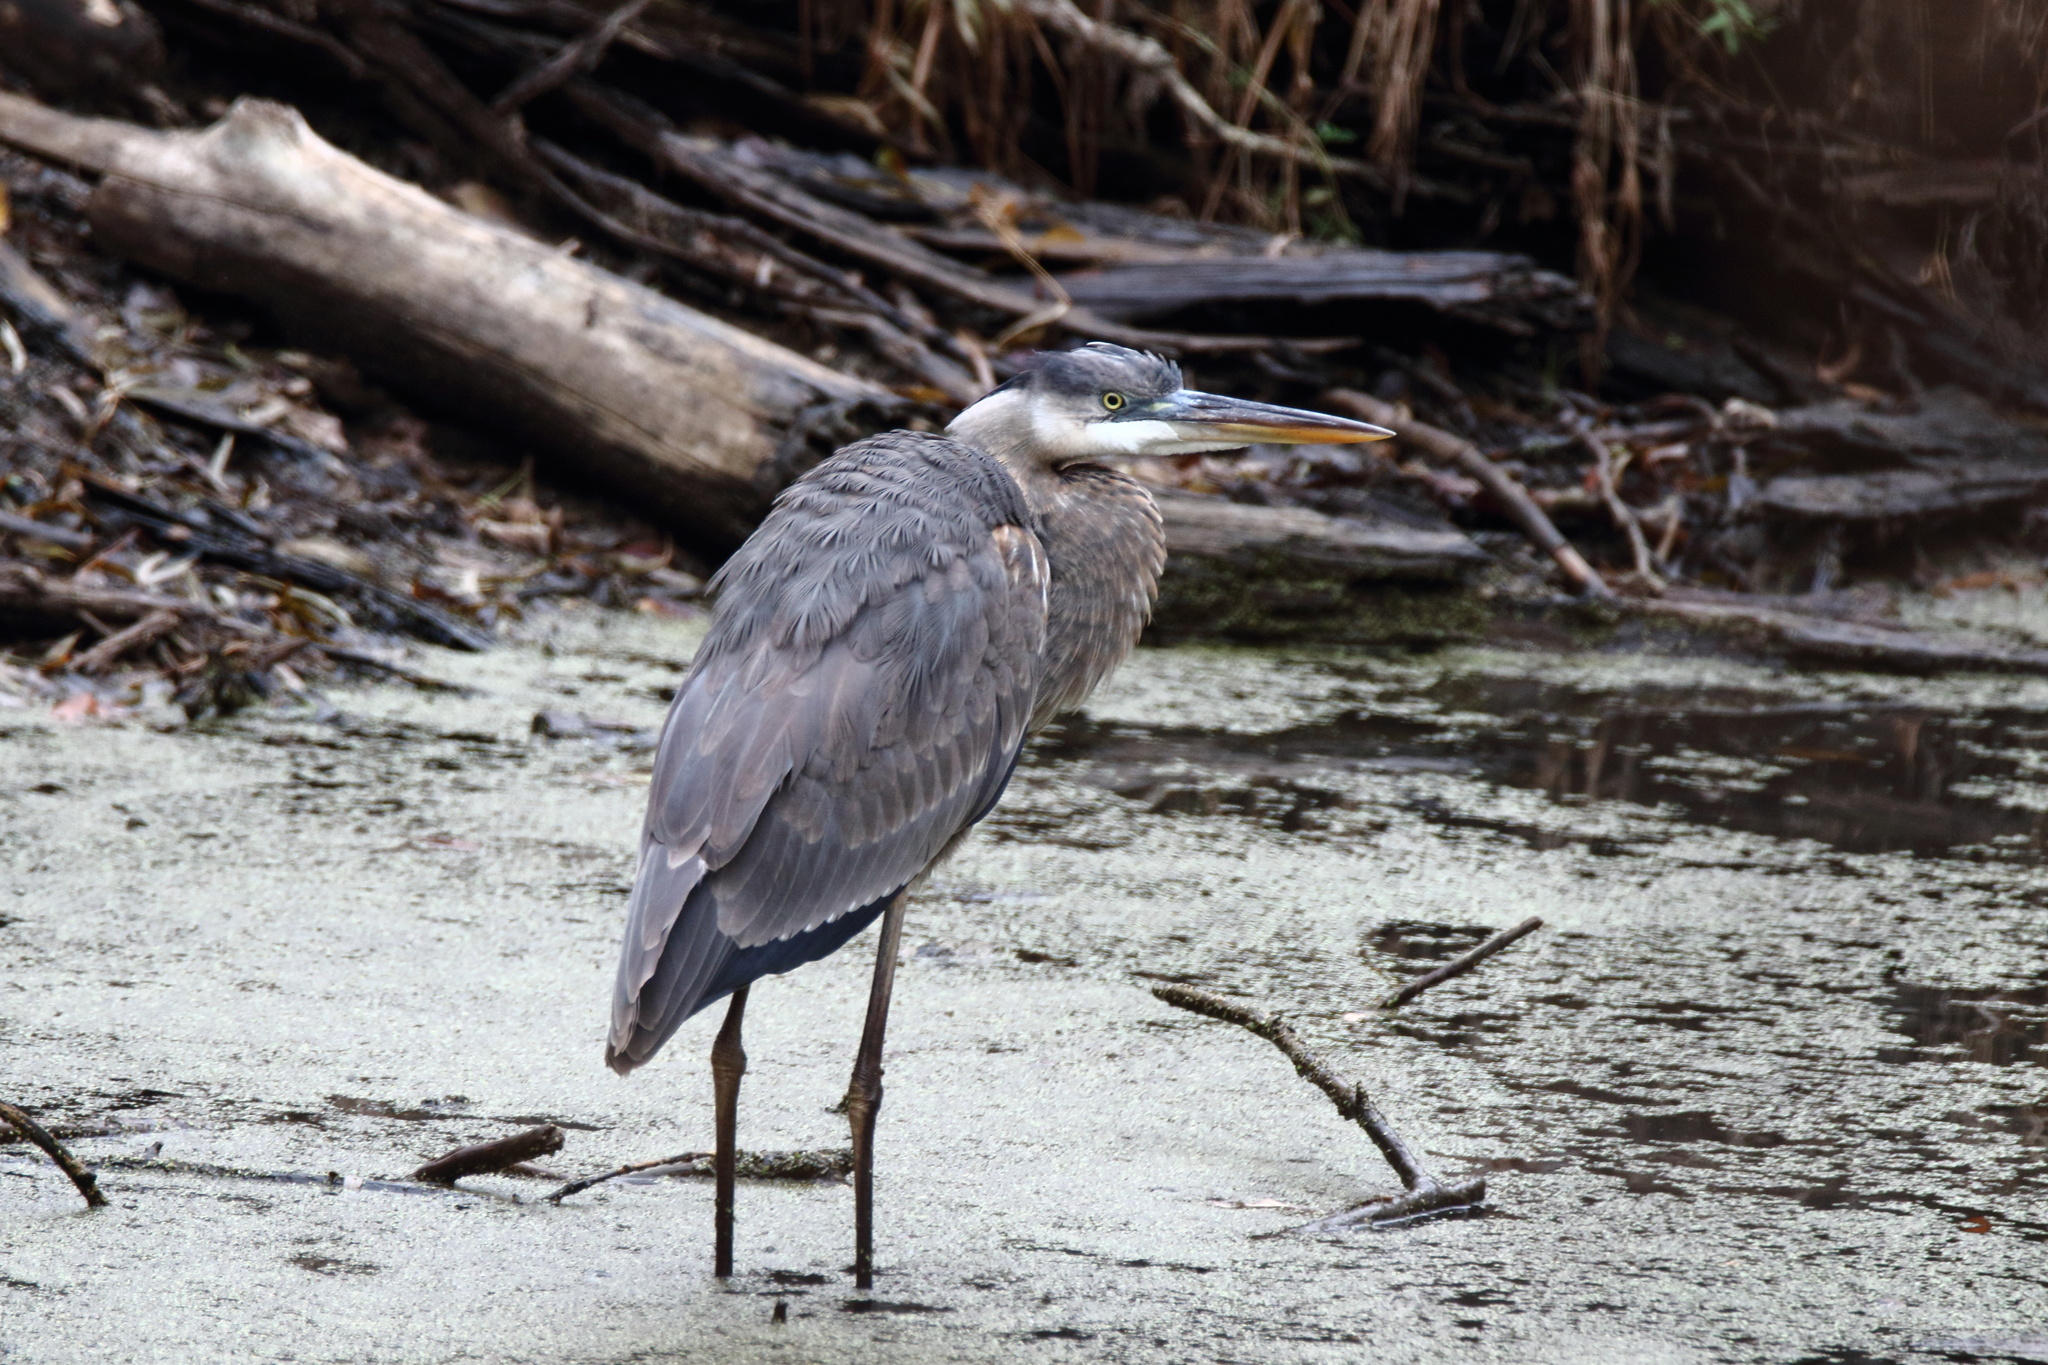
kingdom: Animalia
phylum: Chordata
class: Aves
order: Pelecaniformes
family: Ardeidae
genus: Ardea
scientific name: Ardea herodias
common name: Great blue heron
